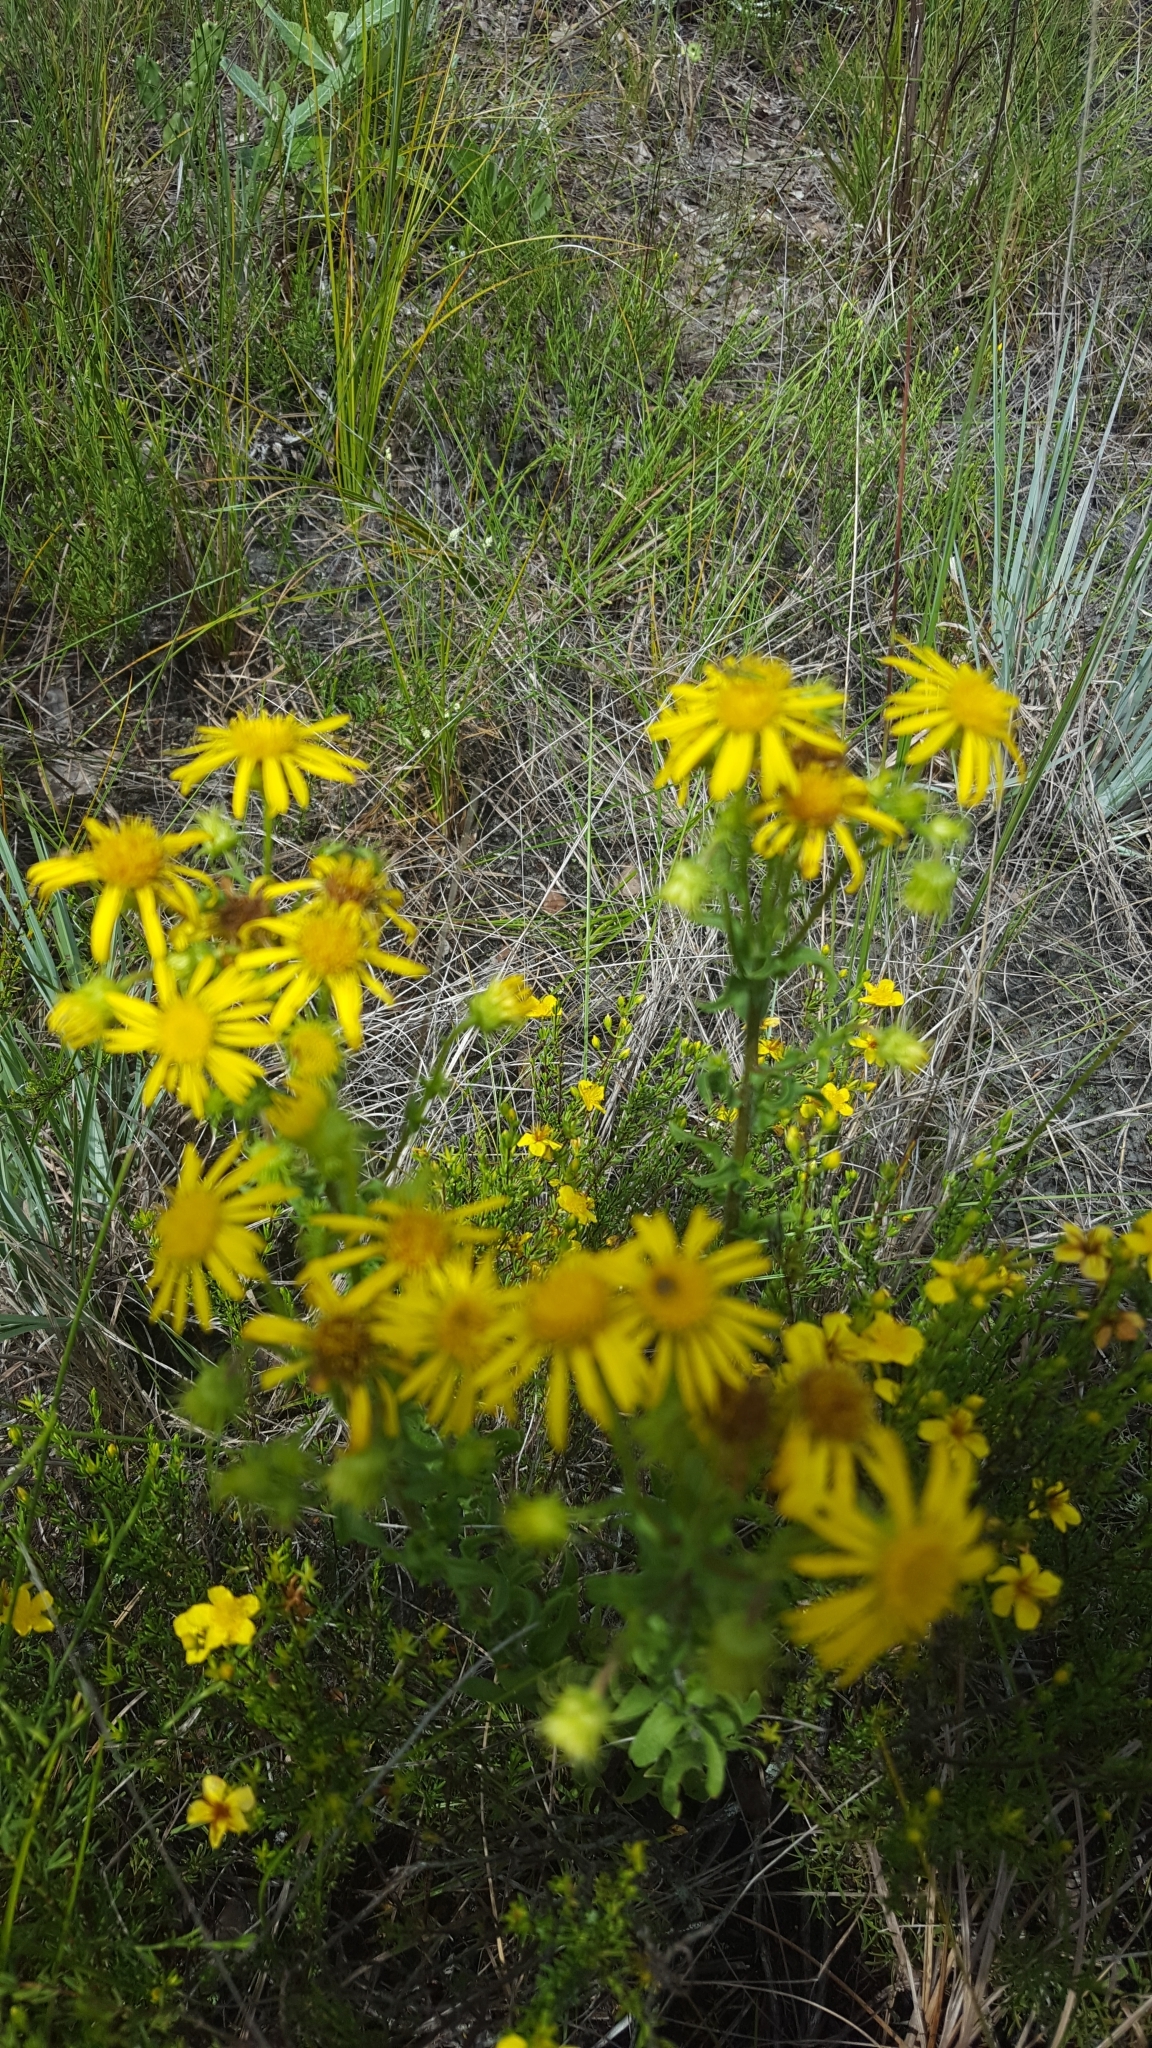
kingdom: Plantae
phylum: Tracheophyta
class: Magnoliopsida
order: Asterales
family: Asteraceae
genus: Chrysopsis
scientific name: Chrysopsis subulata
